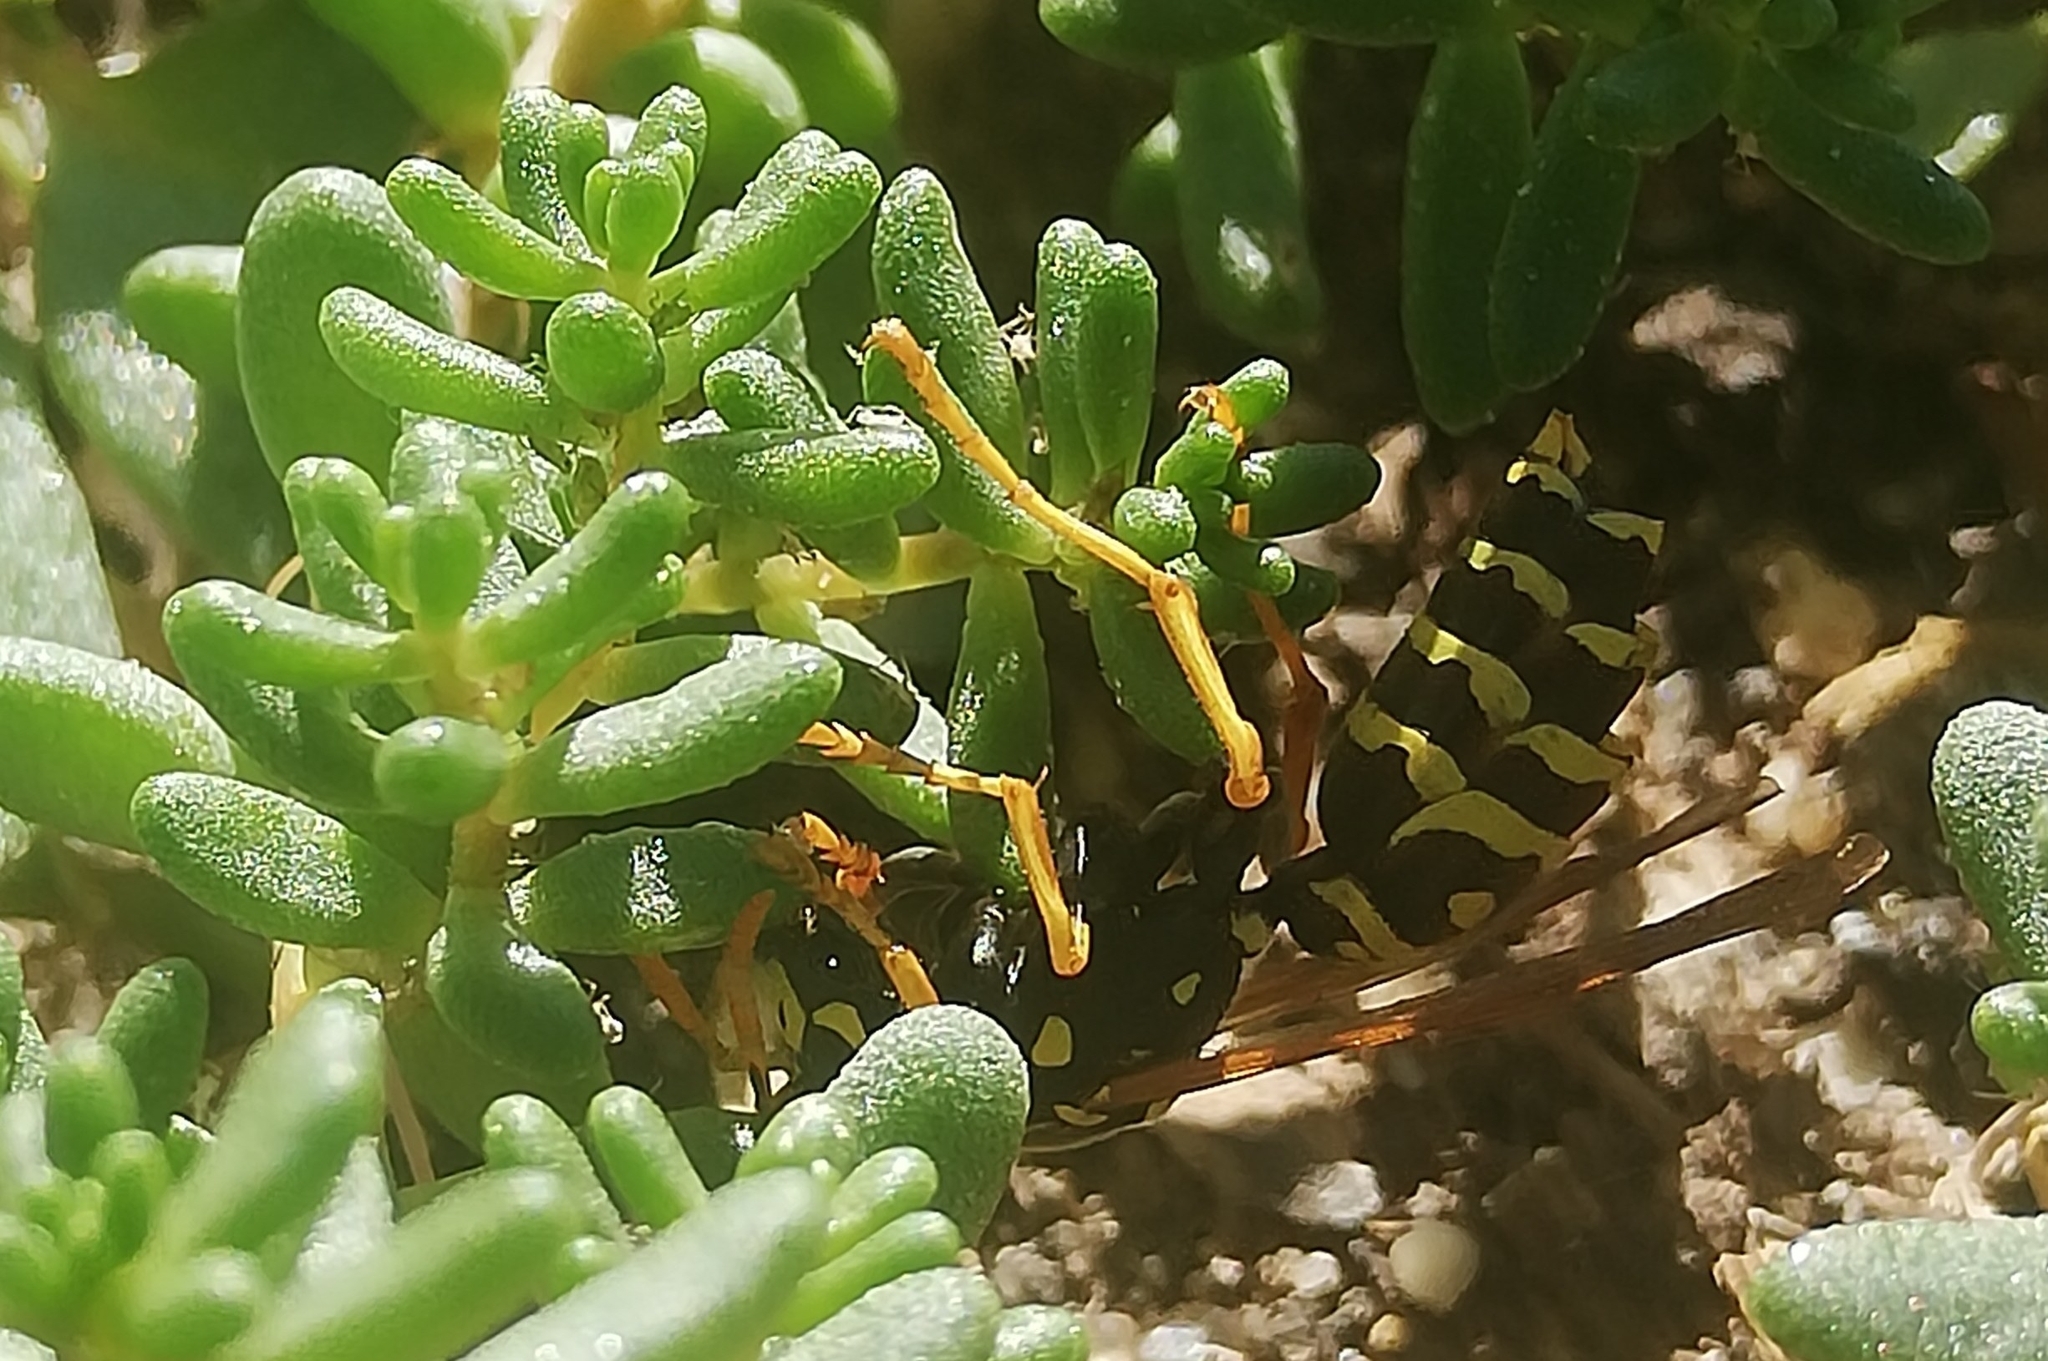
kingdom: Animalia
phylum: Arthropoda
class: Insecta
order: Hymenoptera
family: Eumenidae
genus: Polistes
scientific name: Polistes dominula
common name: Paper wasp
